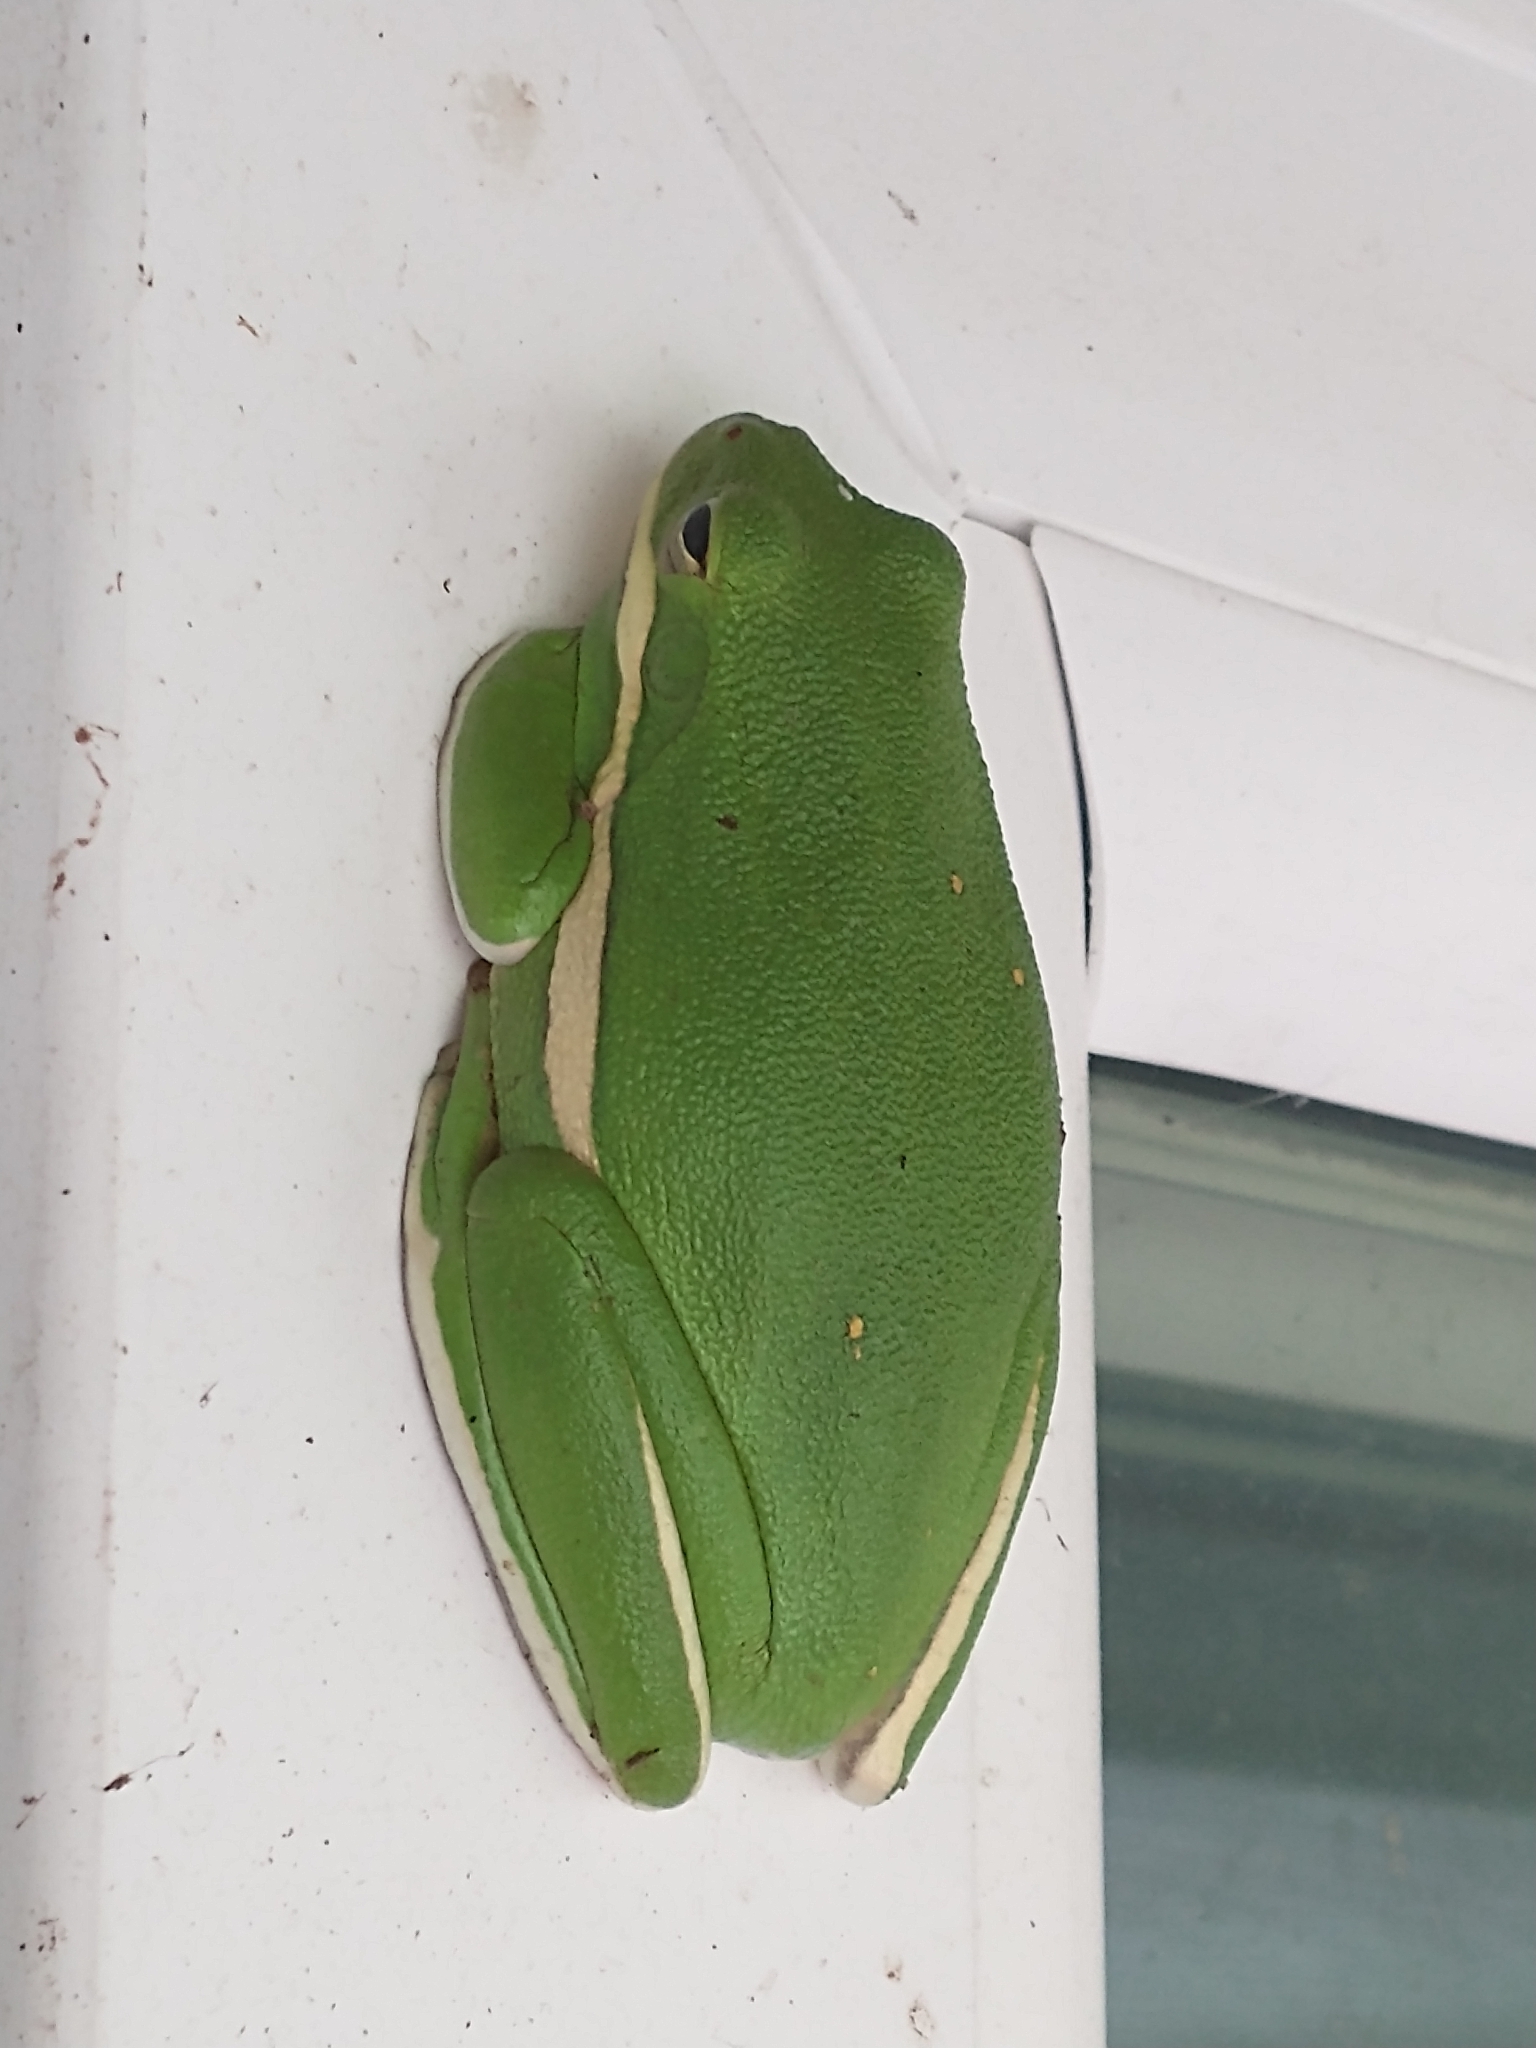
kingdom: Animalia
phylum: Chordata
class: Amphibia
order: Anura
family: Hylidae
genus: Dryophytes
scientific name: Dryophytes cinereus
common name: Green treefrog
